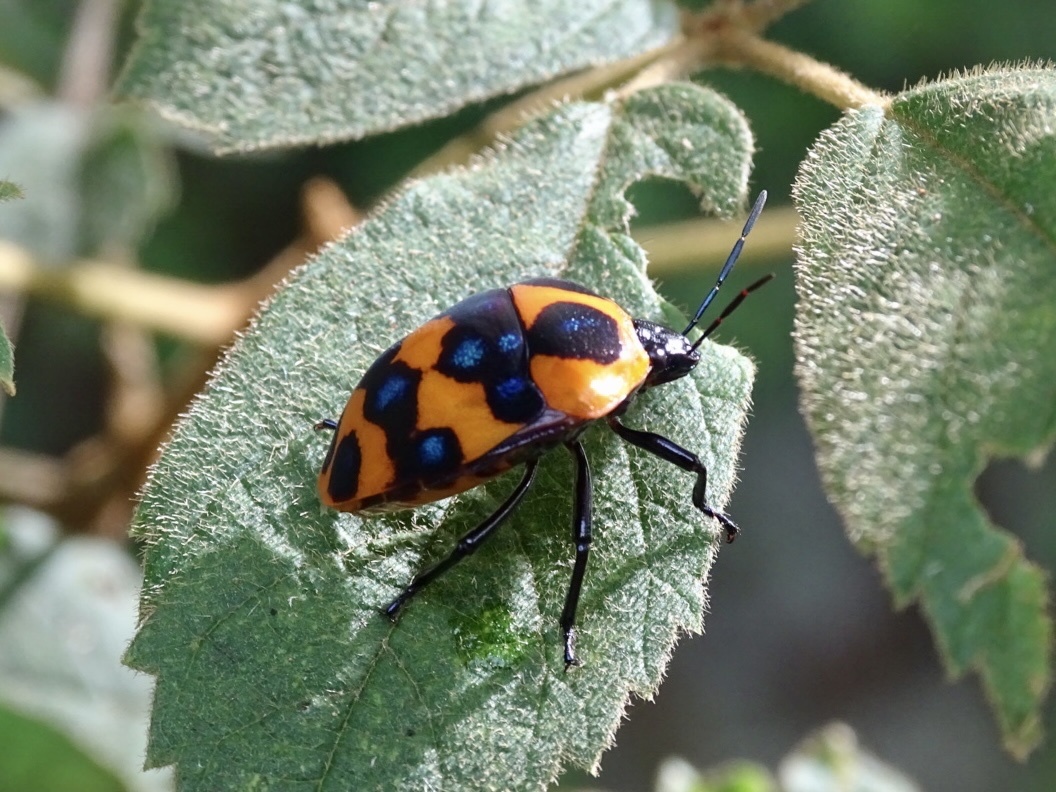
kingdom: Animalia
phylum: Arthropoda
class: Insecta
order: Hemiptera
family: Scutelleridae
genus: Poecilocoris
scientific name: Poecilocoris druraei
